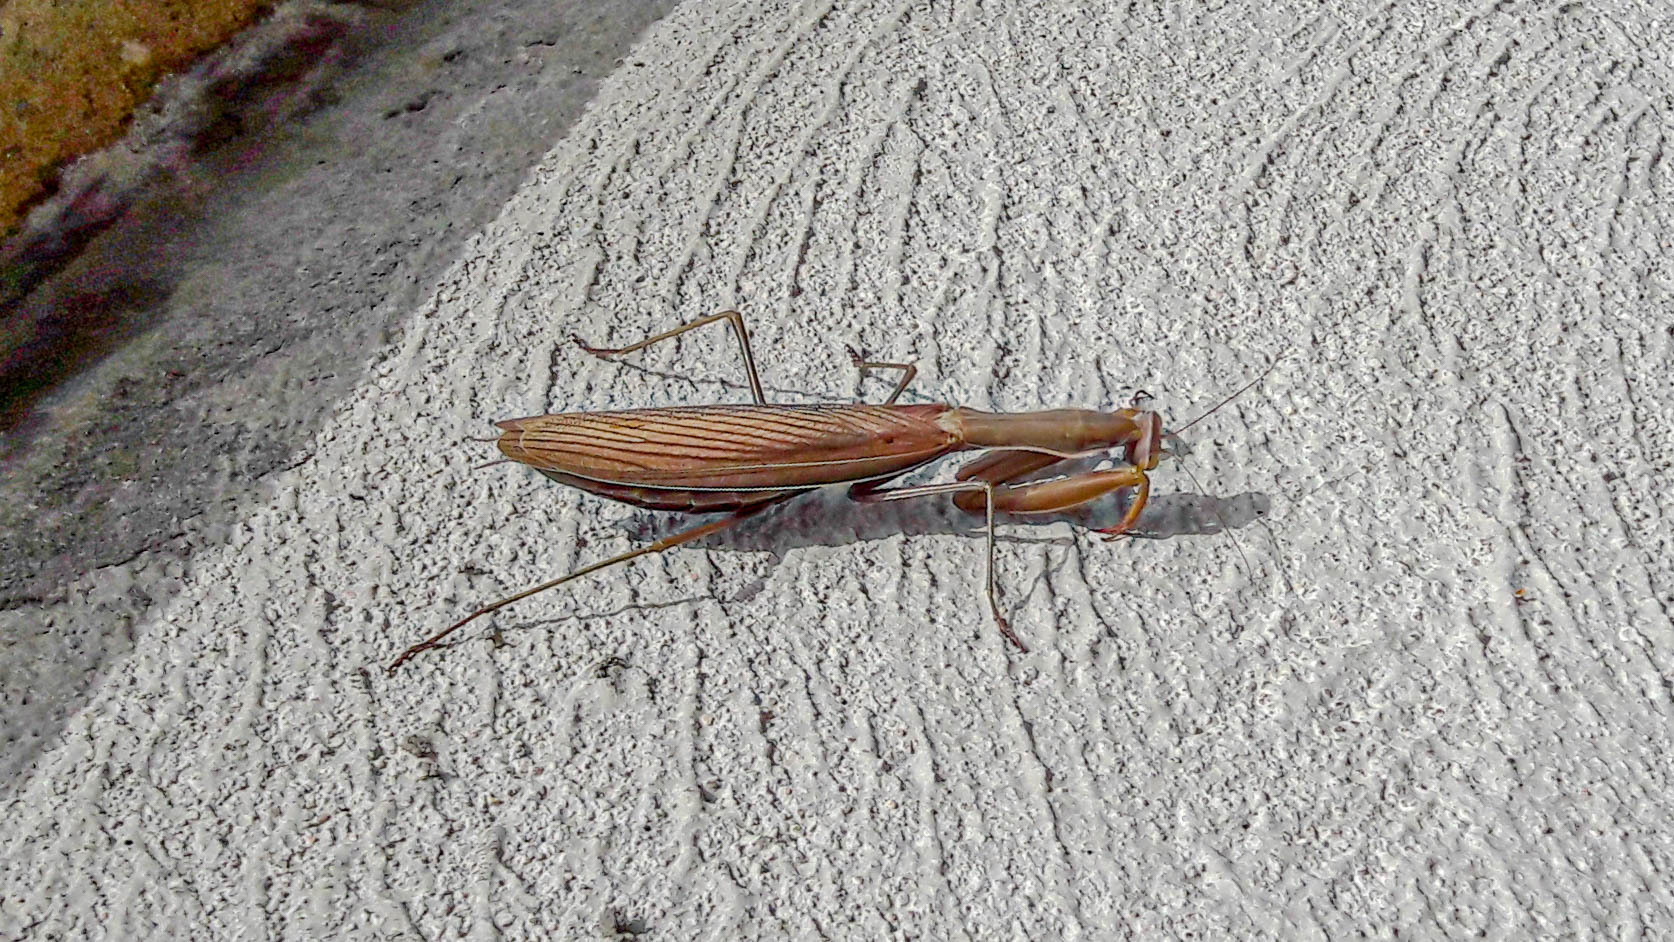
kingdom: Animalia
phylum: Arthropoda
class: Insecta
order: Mantodea
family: Mantidae
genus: Mantis
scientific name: Mantis religiosa
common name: Praying mantis
